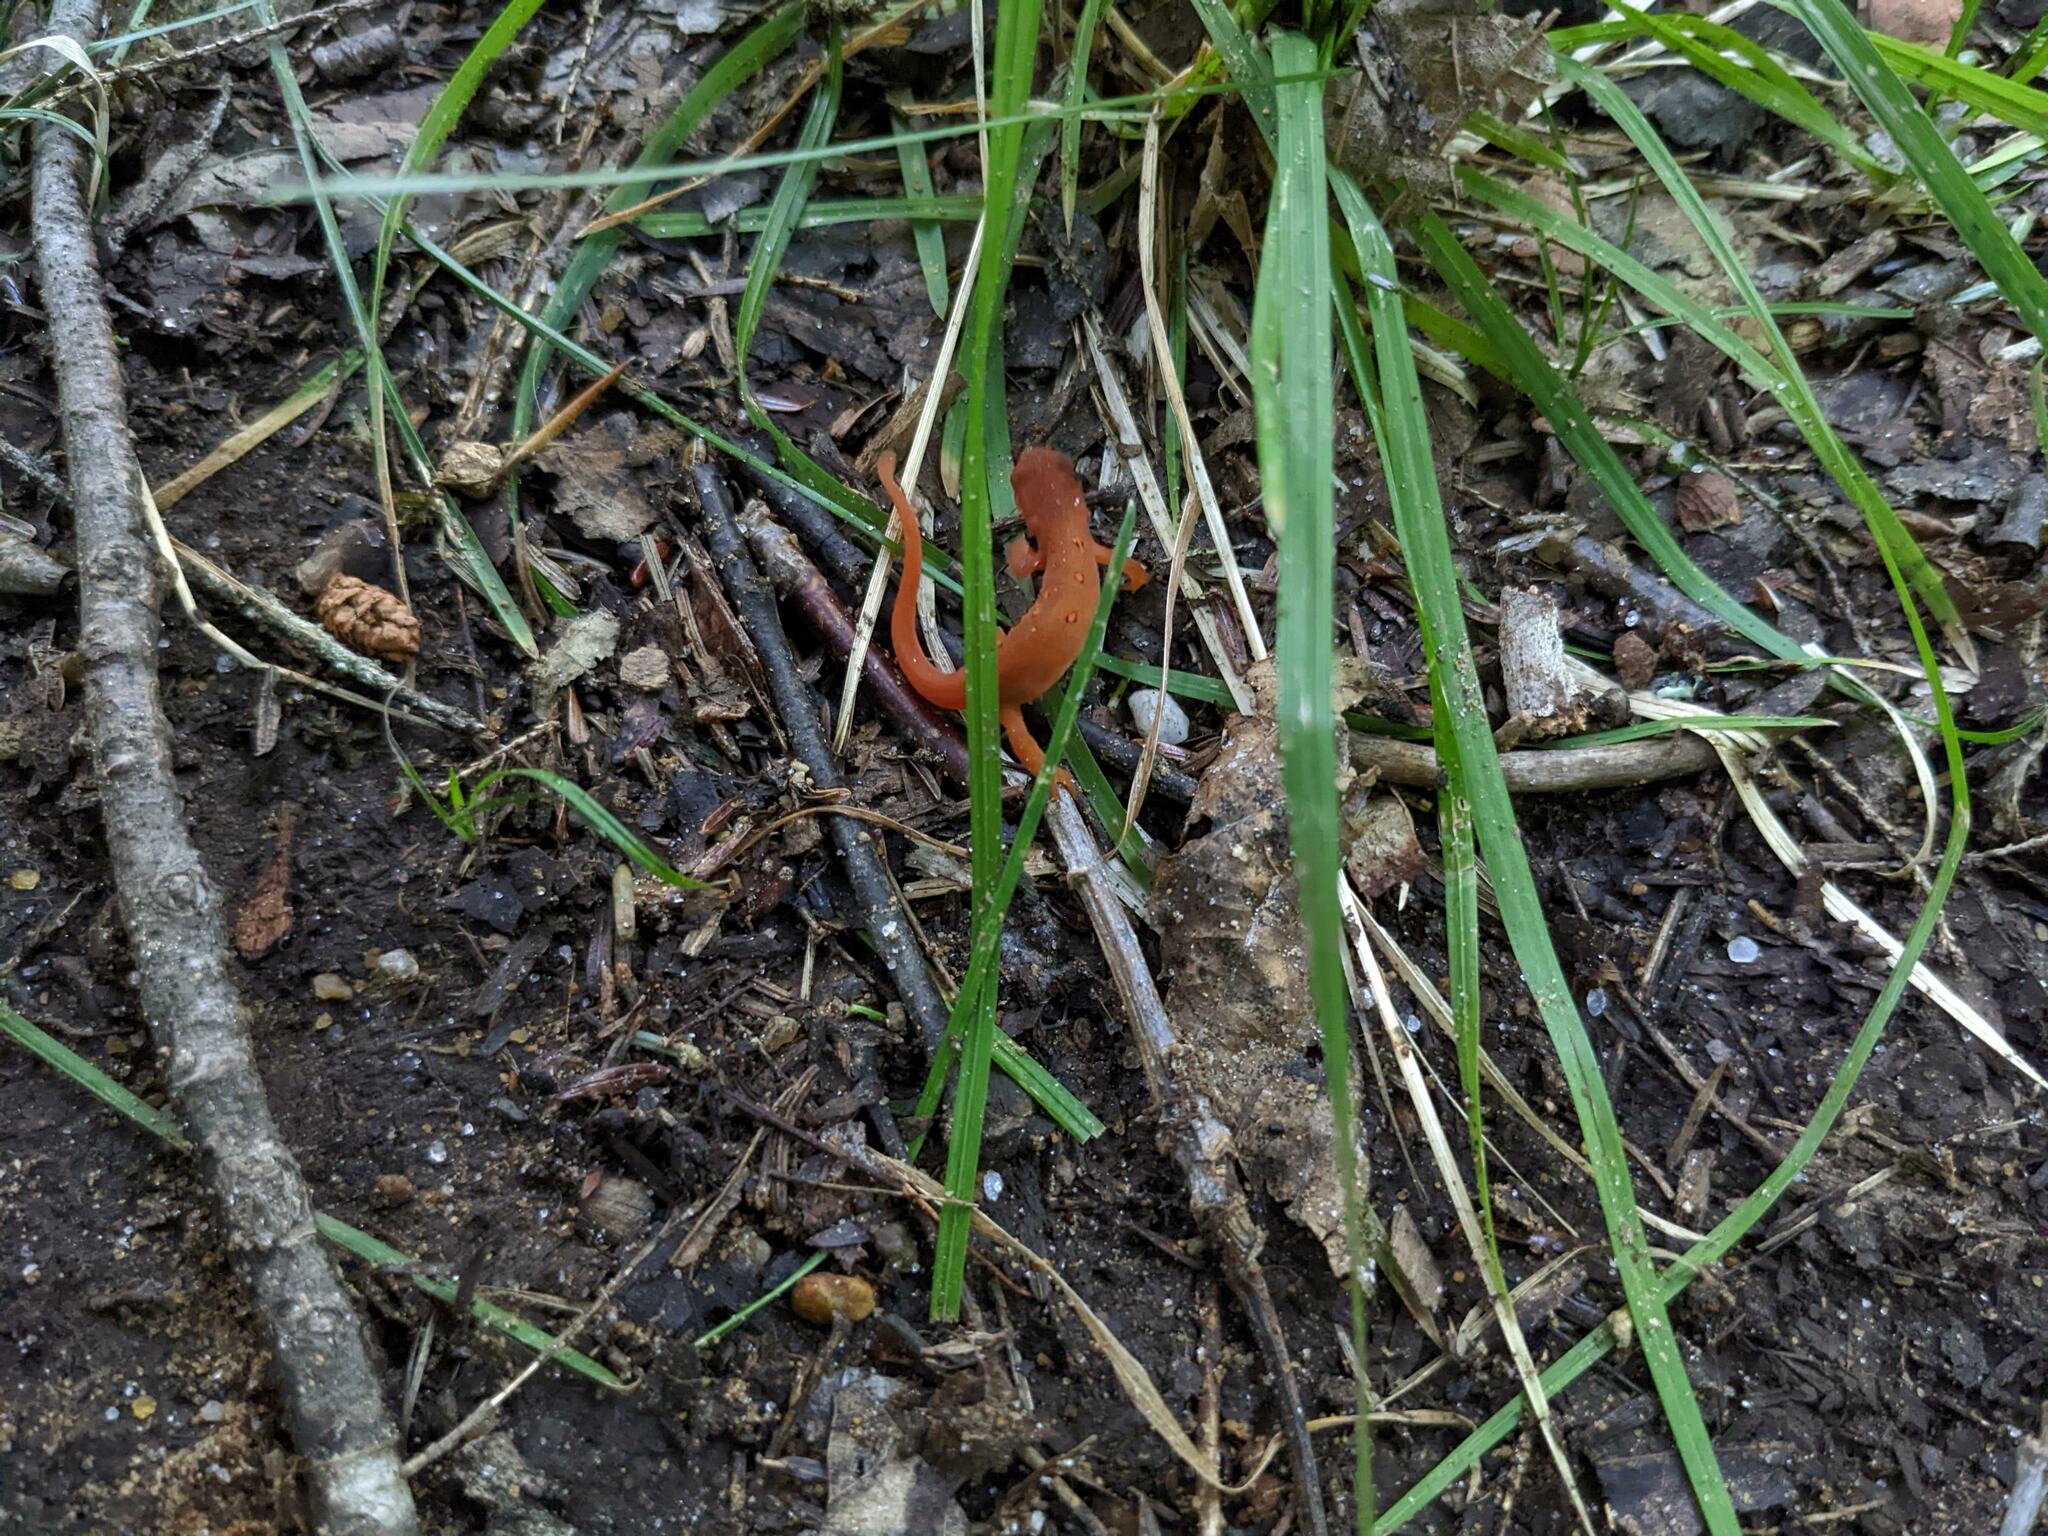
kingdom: Animalia
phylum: Chordata
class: Amphibia
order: Caudata
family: Salamandridae
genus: Notophthalmus
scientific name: Notophthalmus viridescens
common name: Eastern newt
